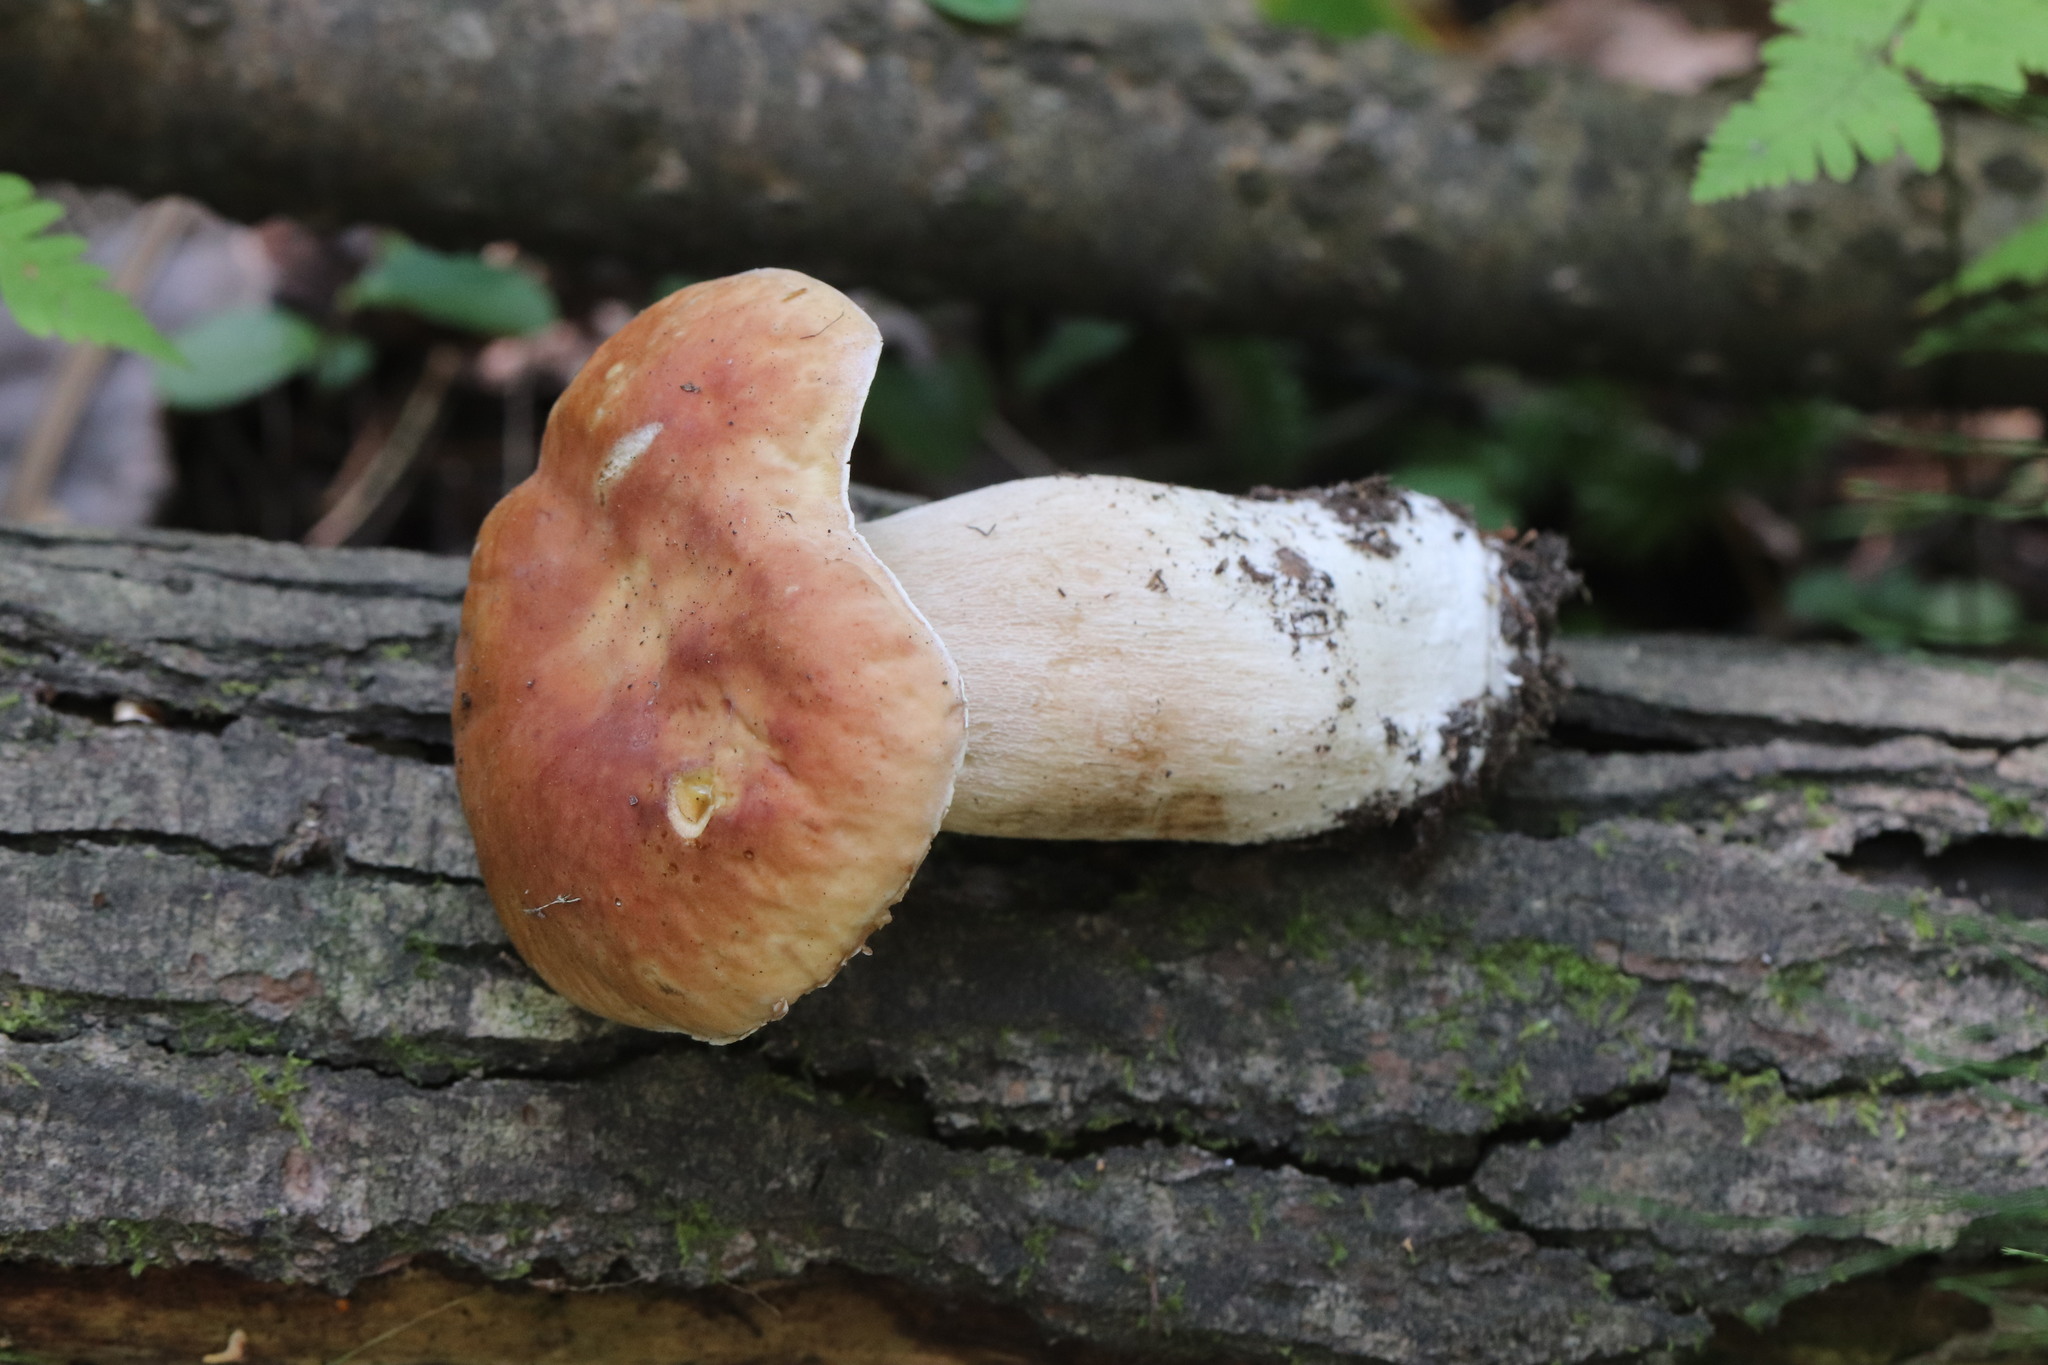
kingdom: Fungi
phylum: Basidiomycota
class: Agaricomycetes
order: Boletales
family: Boletaceae
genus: Boletus
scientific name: Boletus edulis
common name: Cep
